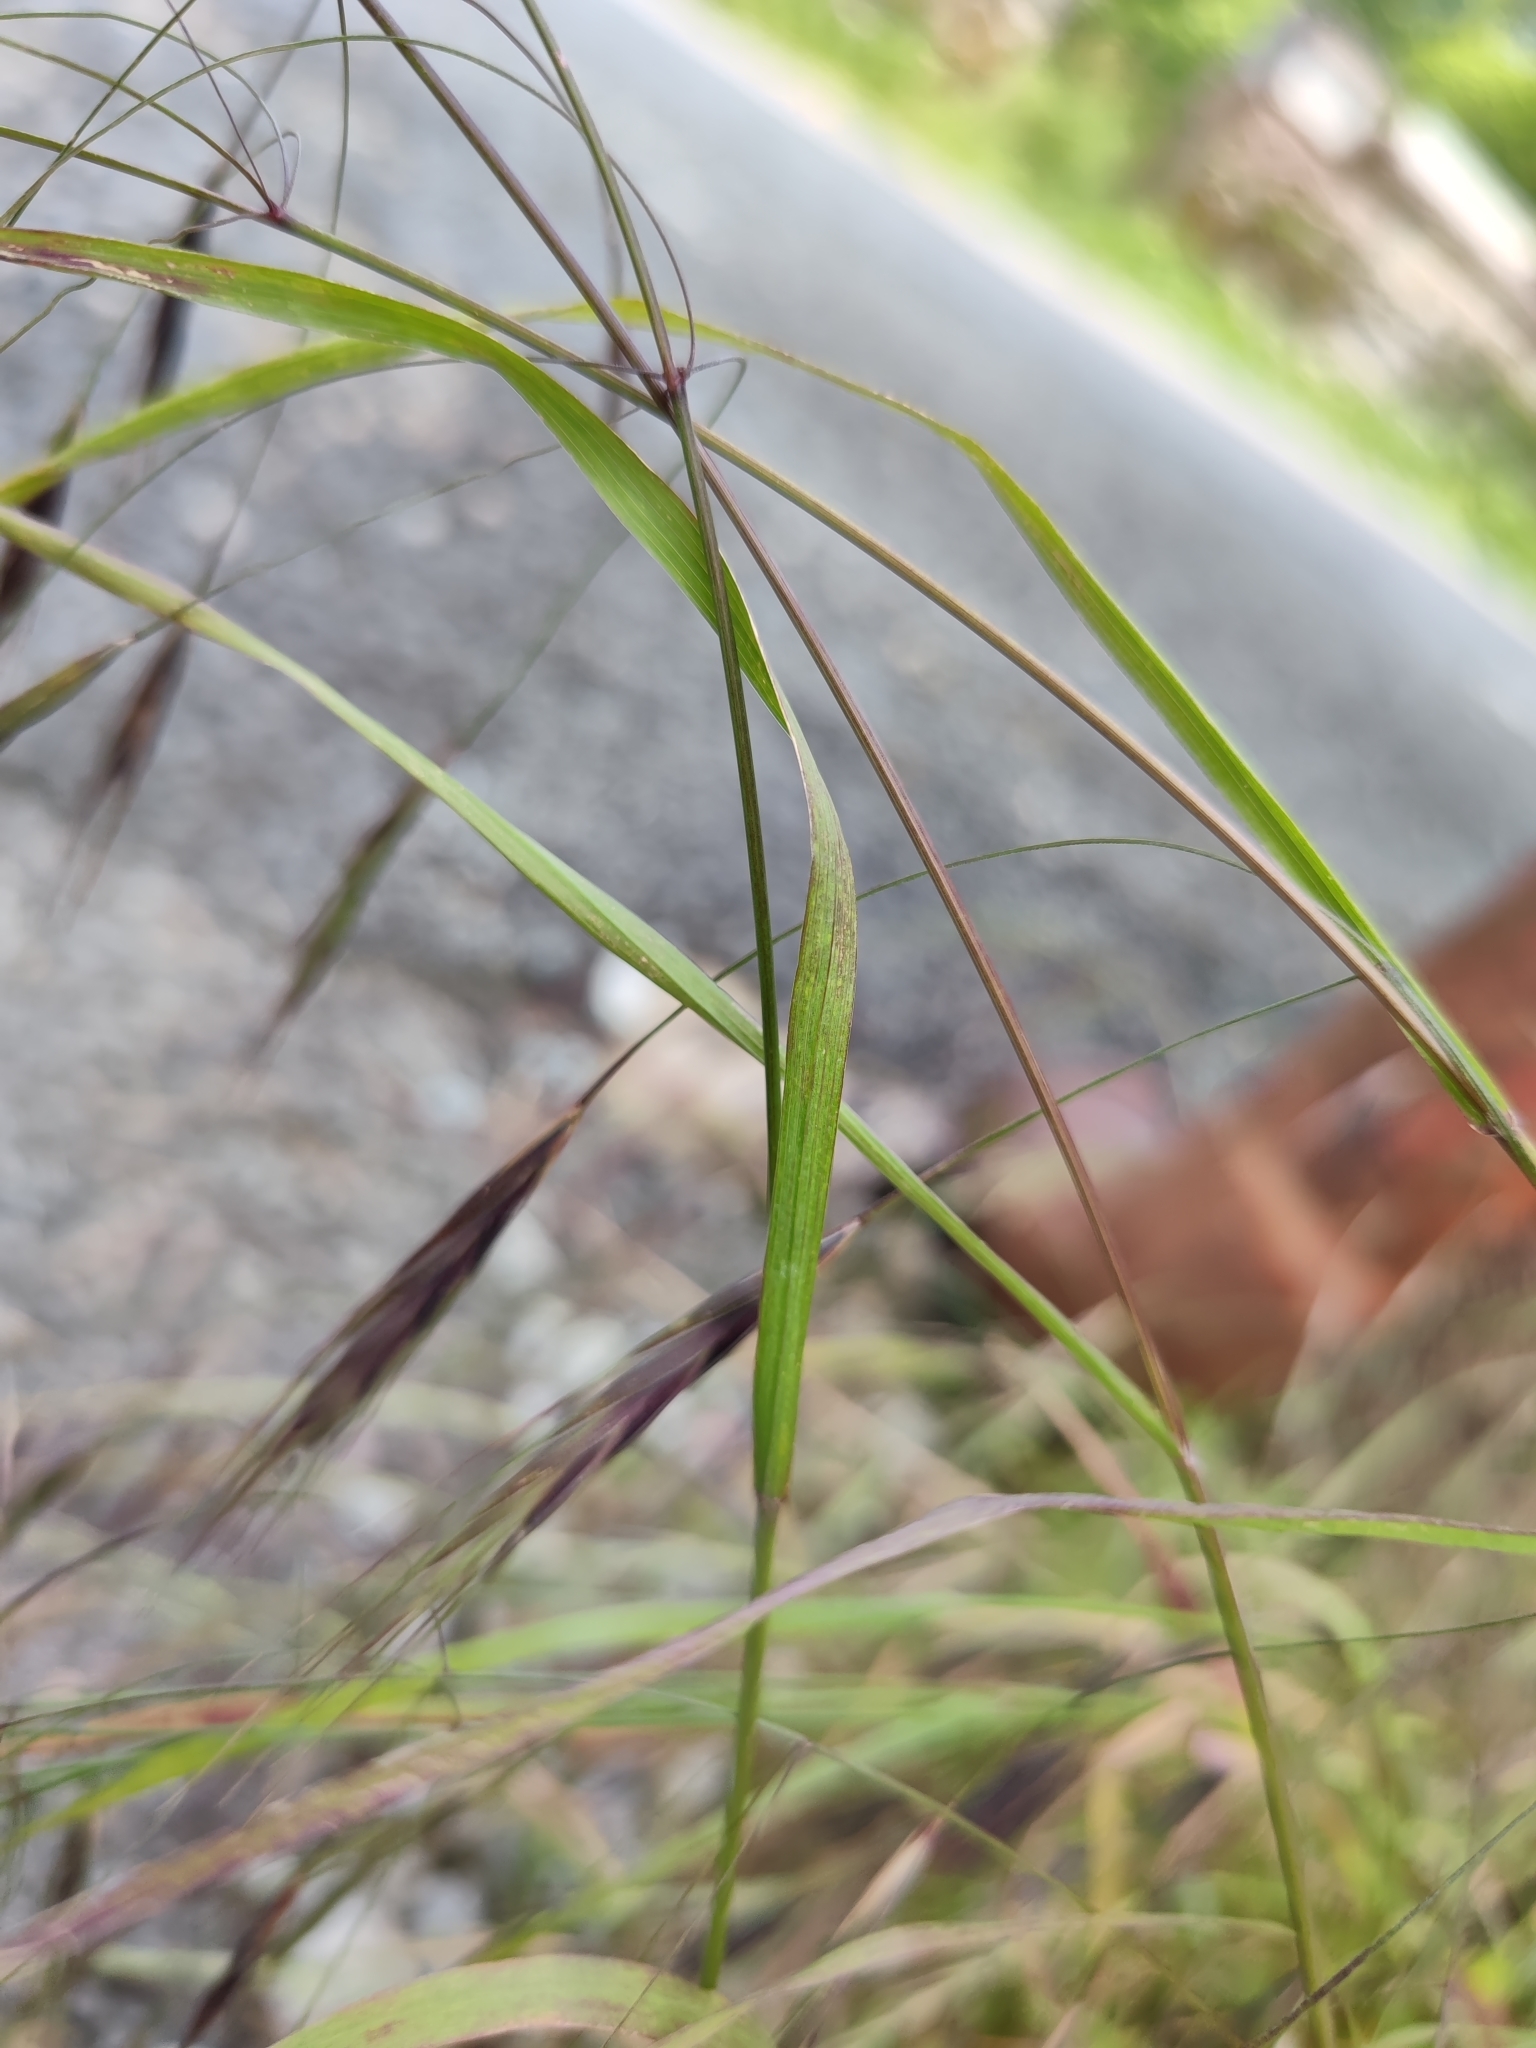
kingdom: Plantae
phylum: Tracheophyta
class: Liliopsida
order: Poales
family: Poaceae
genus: Bromus
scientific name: Bromus sterilis
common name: Poverty brome
